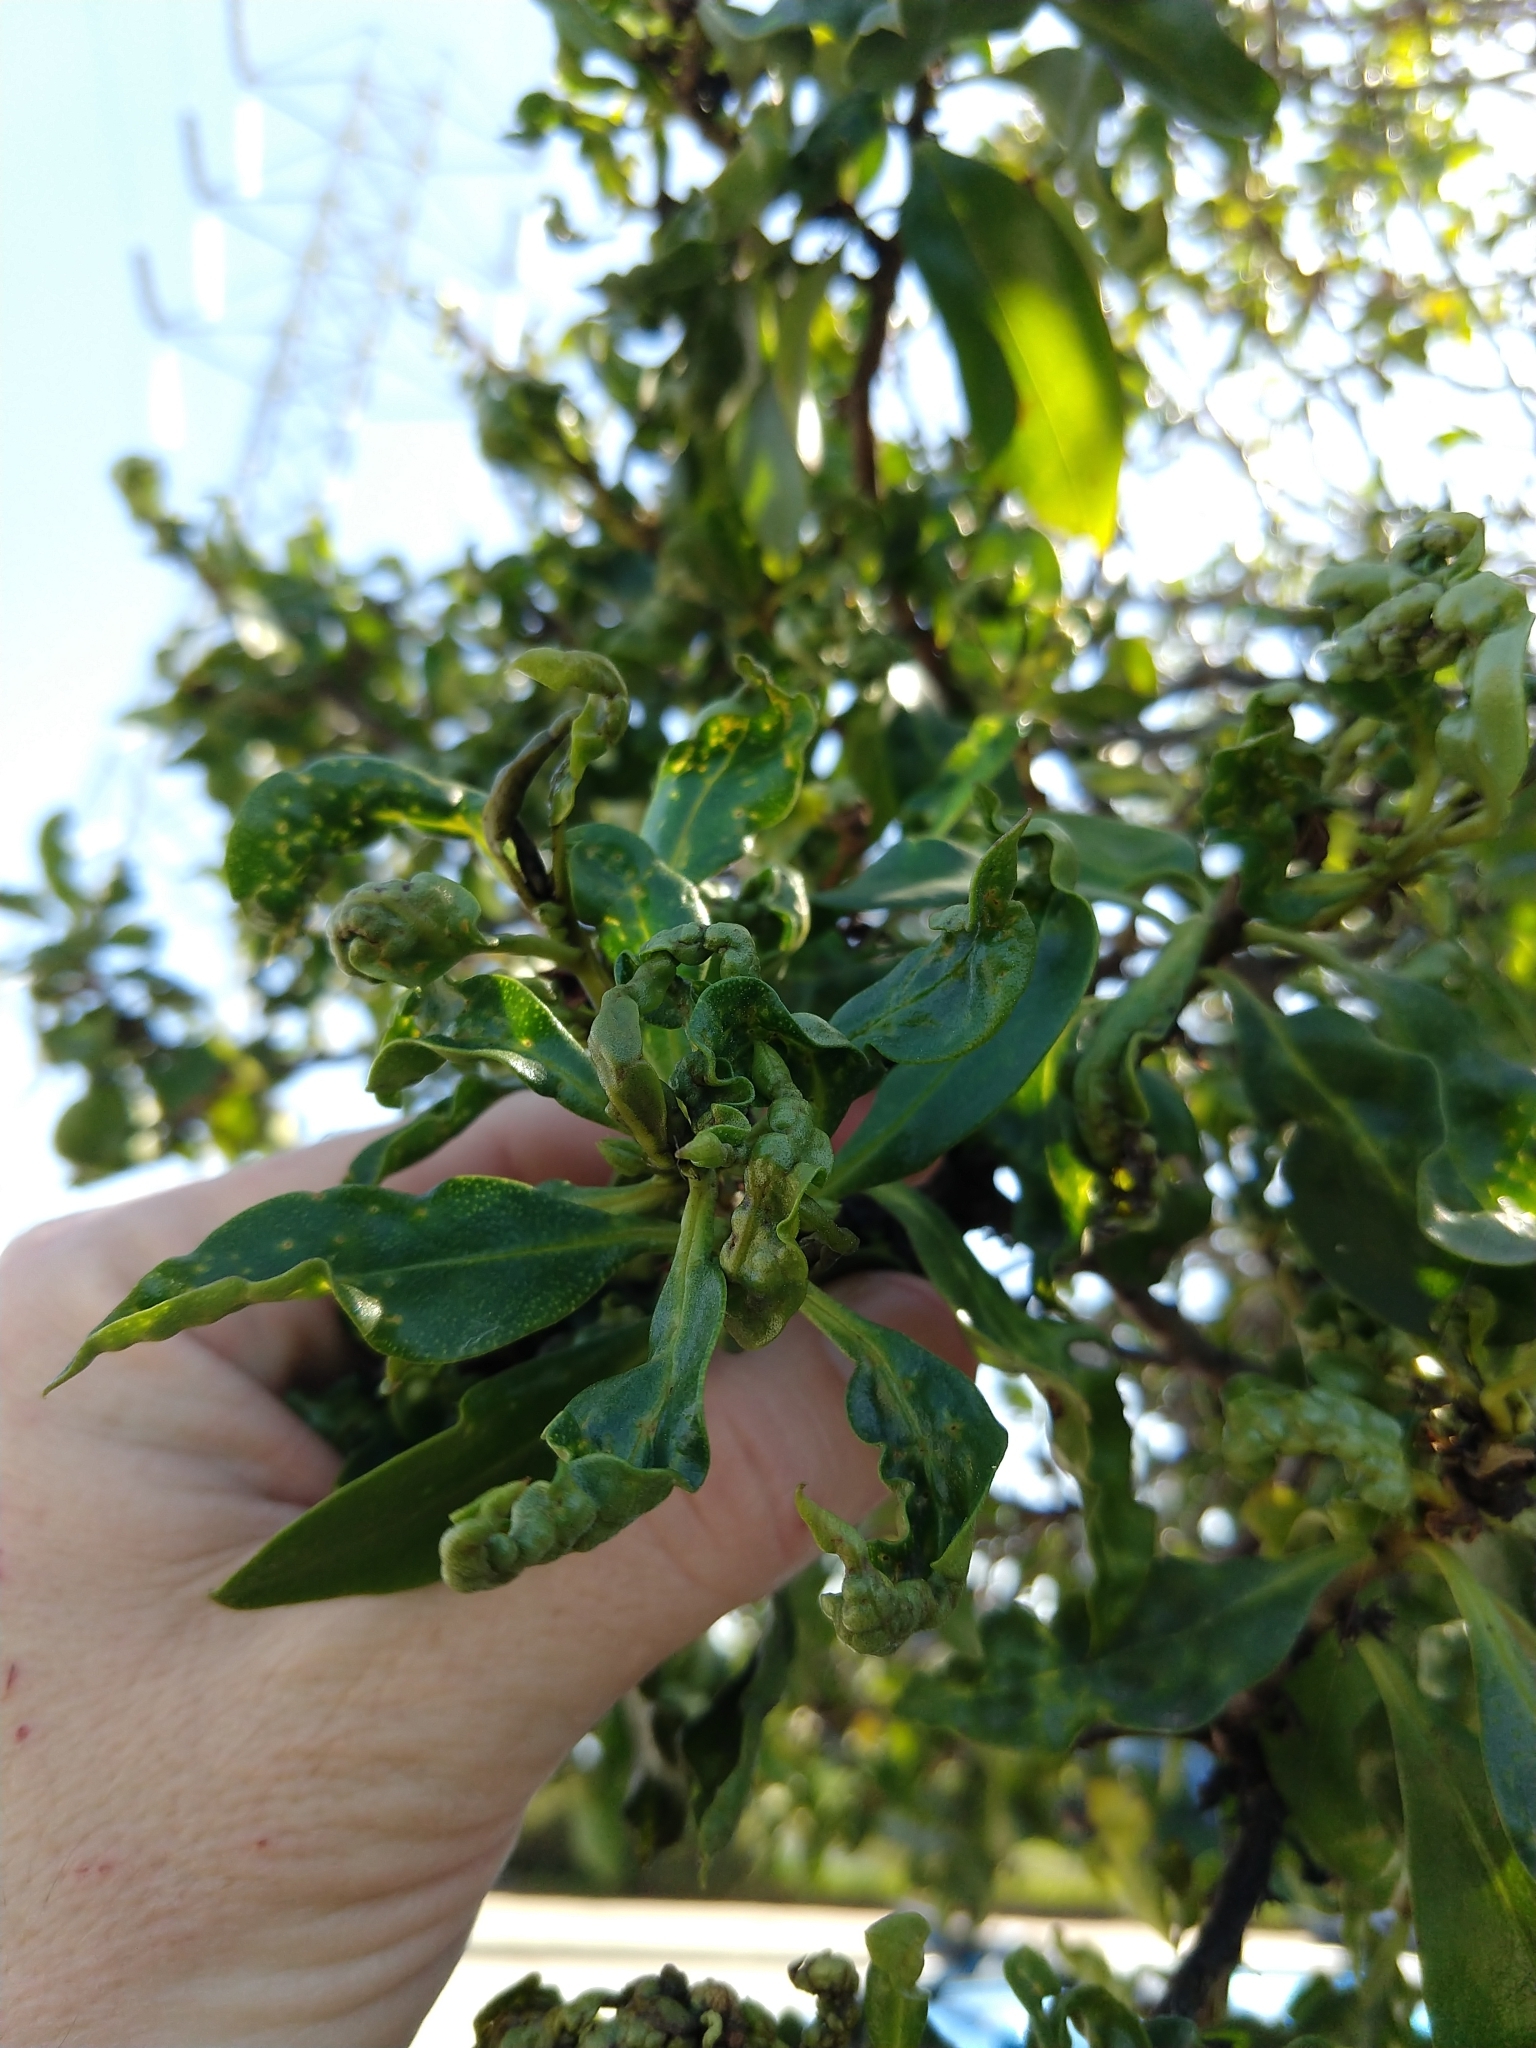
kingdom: Animalia
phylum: Arthropoda
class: Insecta
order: Thysanoptera
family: Phlaeothripidae
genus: Klambothrips
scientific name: Klambothrips myopori
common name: Myoporum thrips
